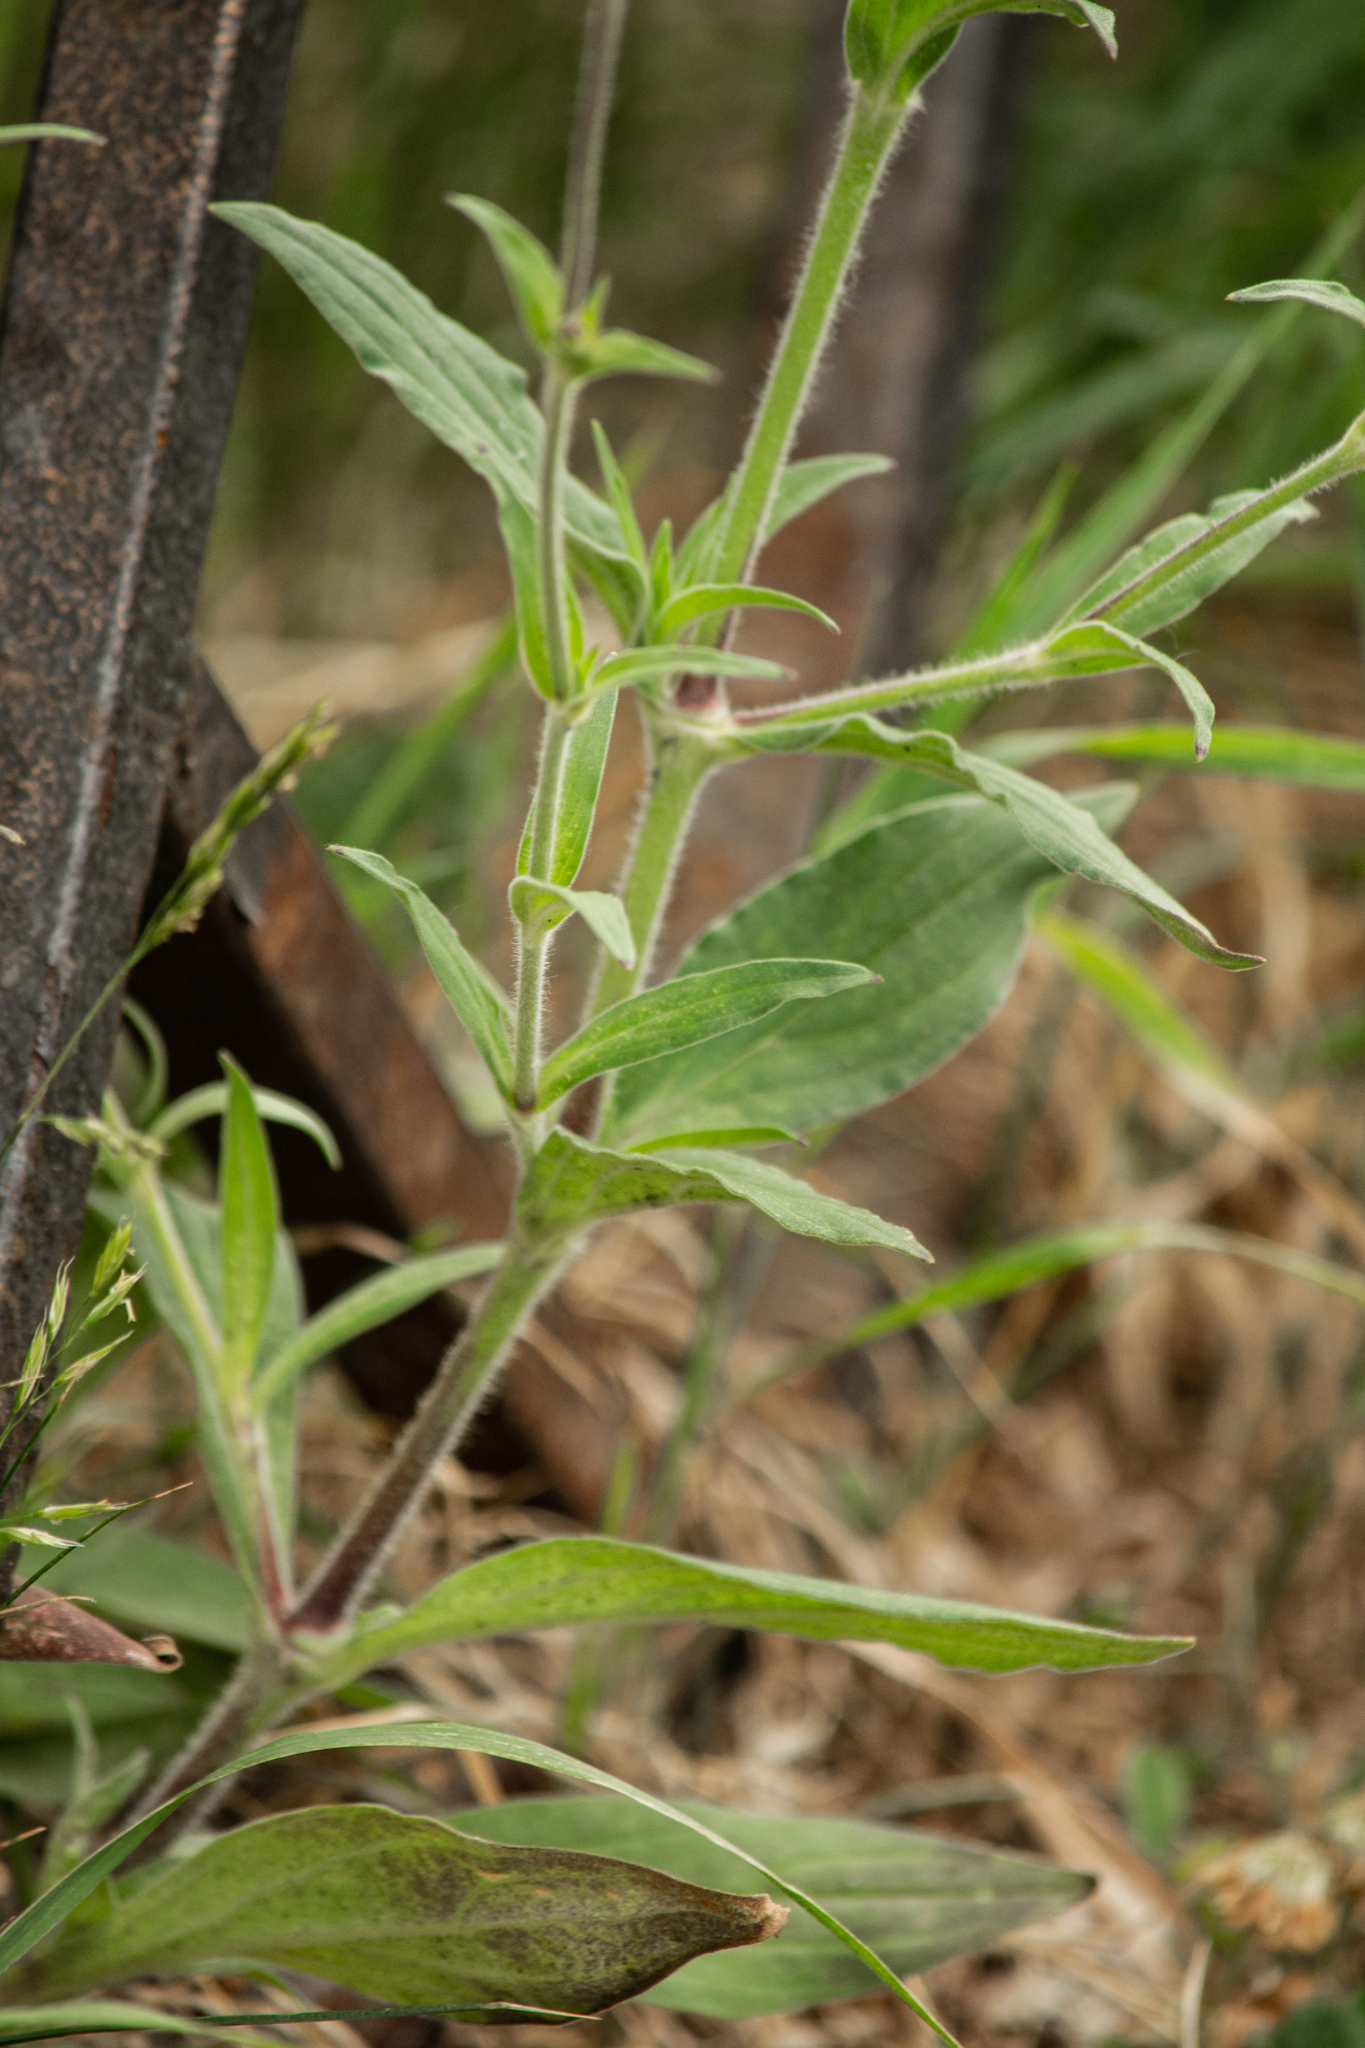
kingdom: Plantae
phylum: Tracheophyta
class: Magnoliopsida
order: Caryophyllales
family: Caryophyllaceae
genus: Silene
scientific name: Silene latifolia
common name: White campion
